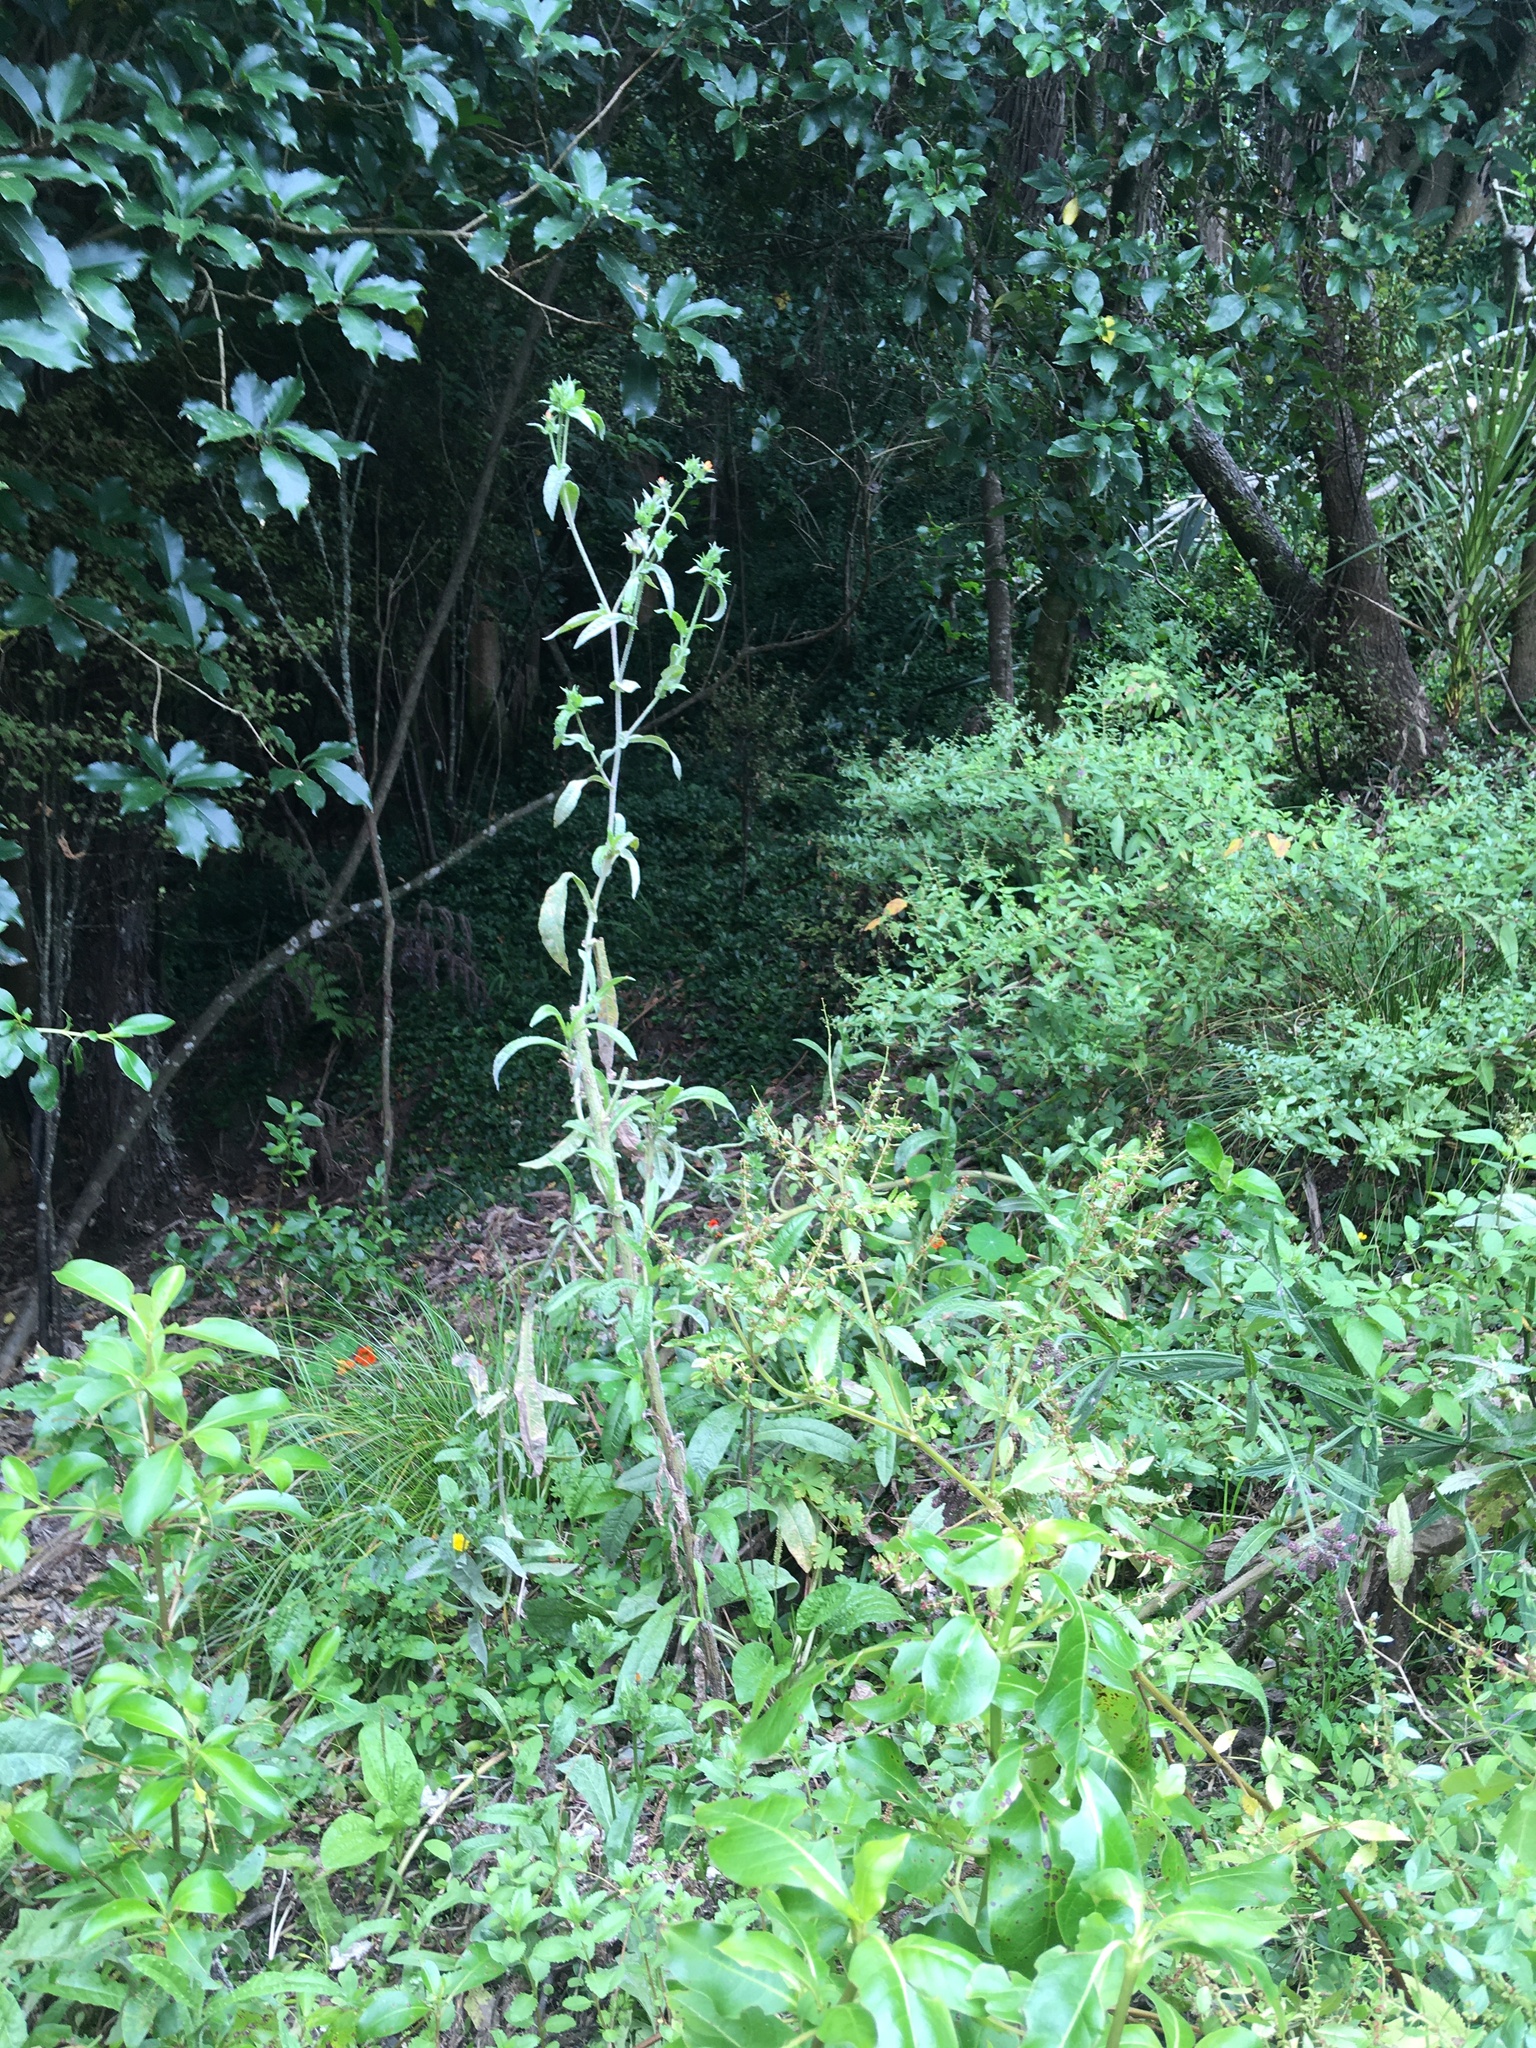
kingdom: Plantae
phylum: Tracheophyta
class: Magnoliopsida
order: Asterales
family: Asteraceae
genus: Helminthotheca
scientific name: Helminthotheca echioides
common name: Ox-tongue
